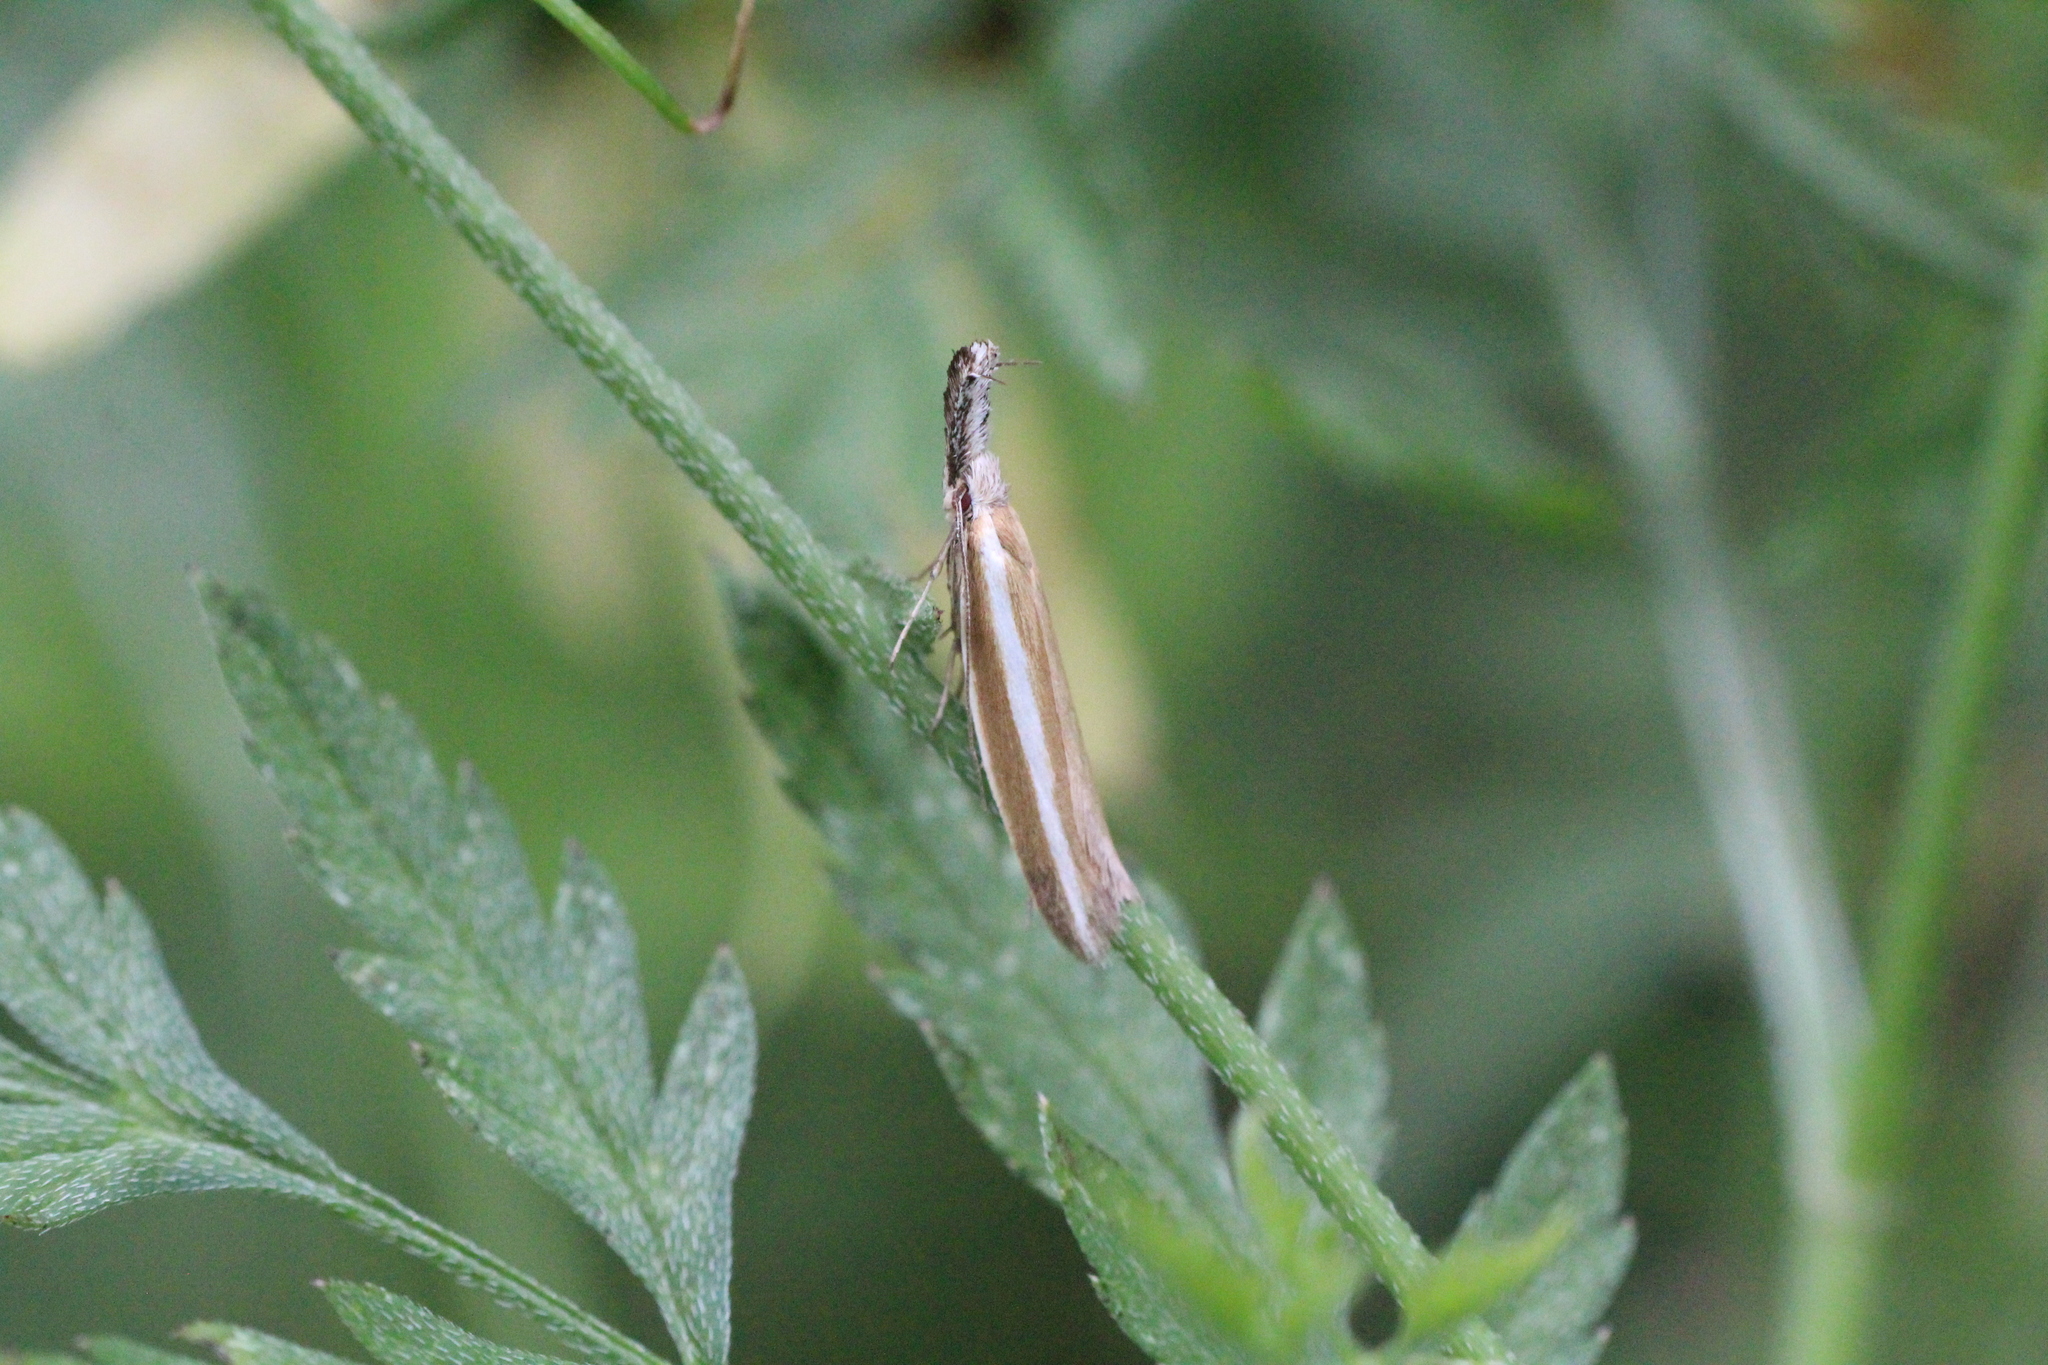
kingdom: Animalia
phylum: Arthropoda
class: Insecta
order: Lepidoptera
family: Oecophoridae
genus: Pleurota
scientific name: Pleurota aristella
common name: Southern streak
